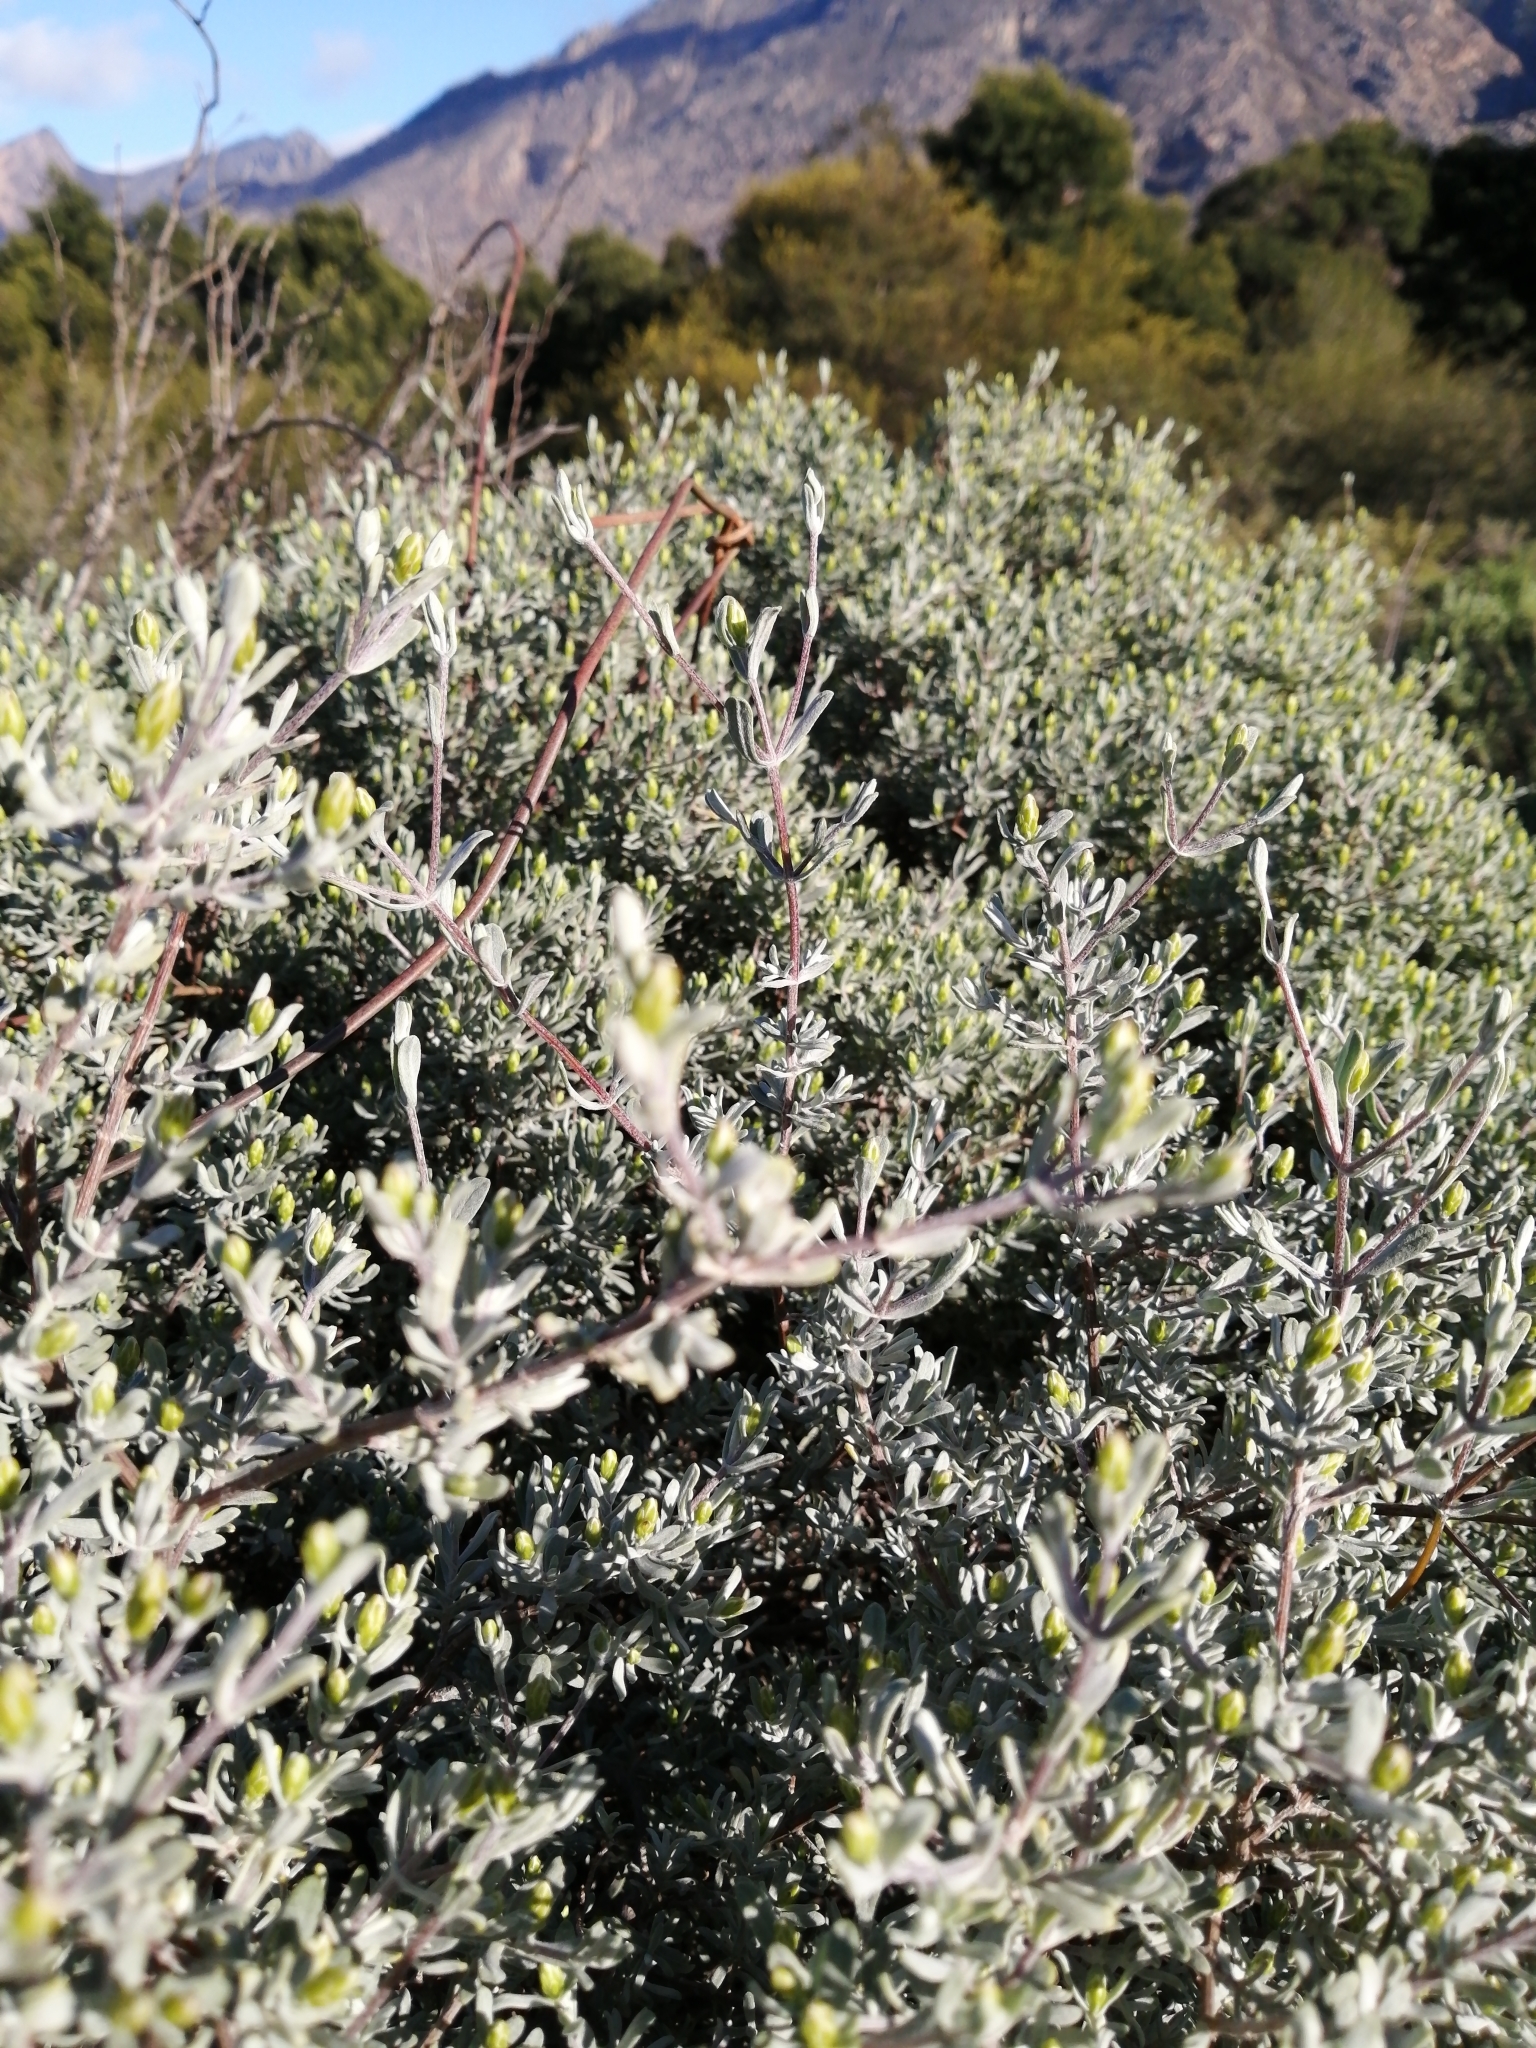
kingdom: Plantae
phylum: Tracheophyta
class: Magnoliopsida
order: Asterales
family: Asteraceae
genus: Pteronia
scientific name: Pteronia incana
